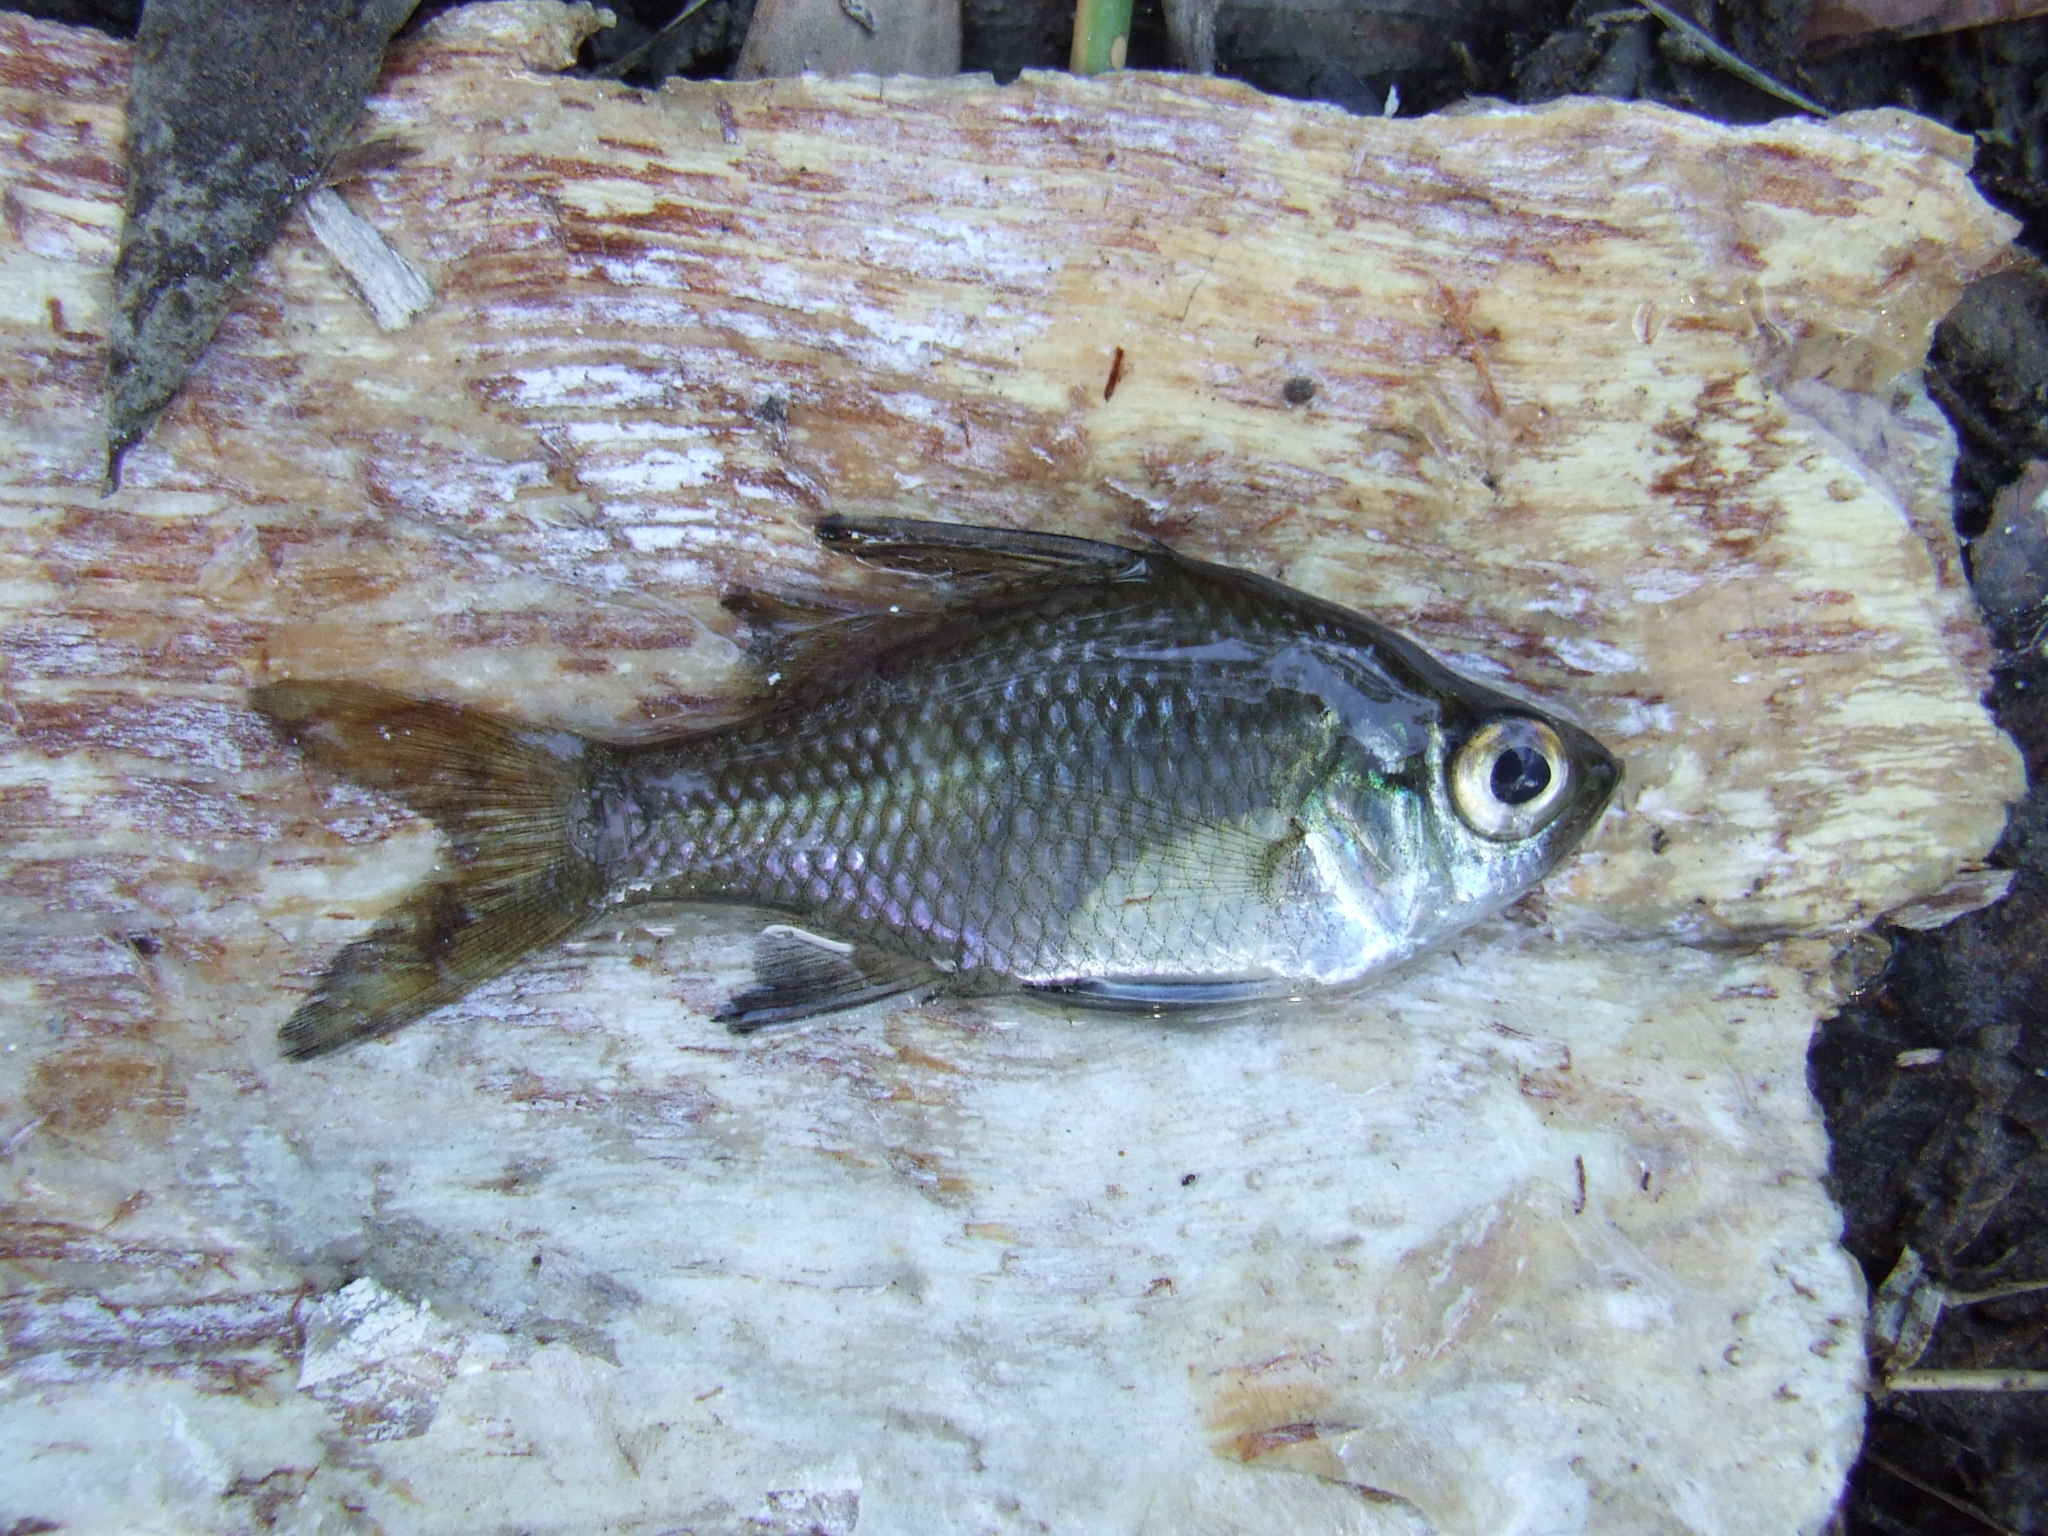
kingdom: Animalia
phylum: Chordata
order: Perciformes
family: Ambassidae
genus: Ambassis
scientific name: Ambassis
